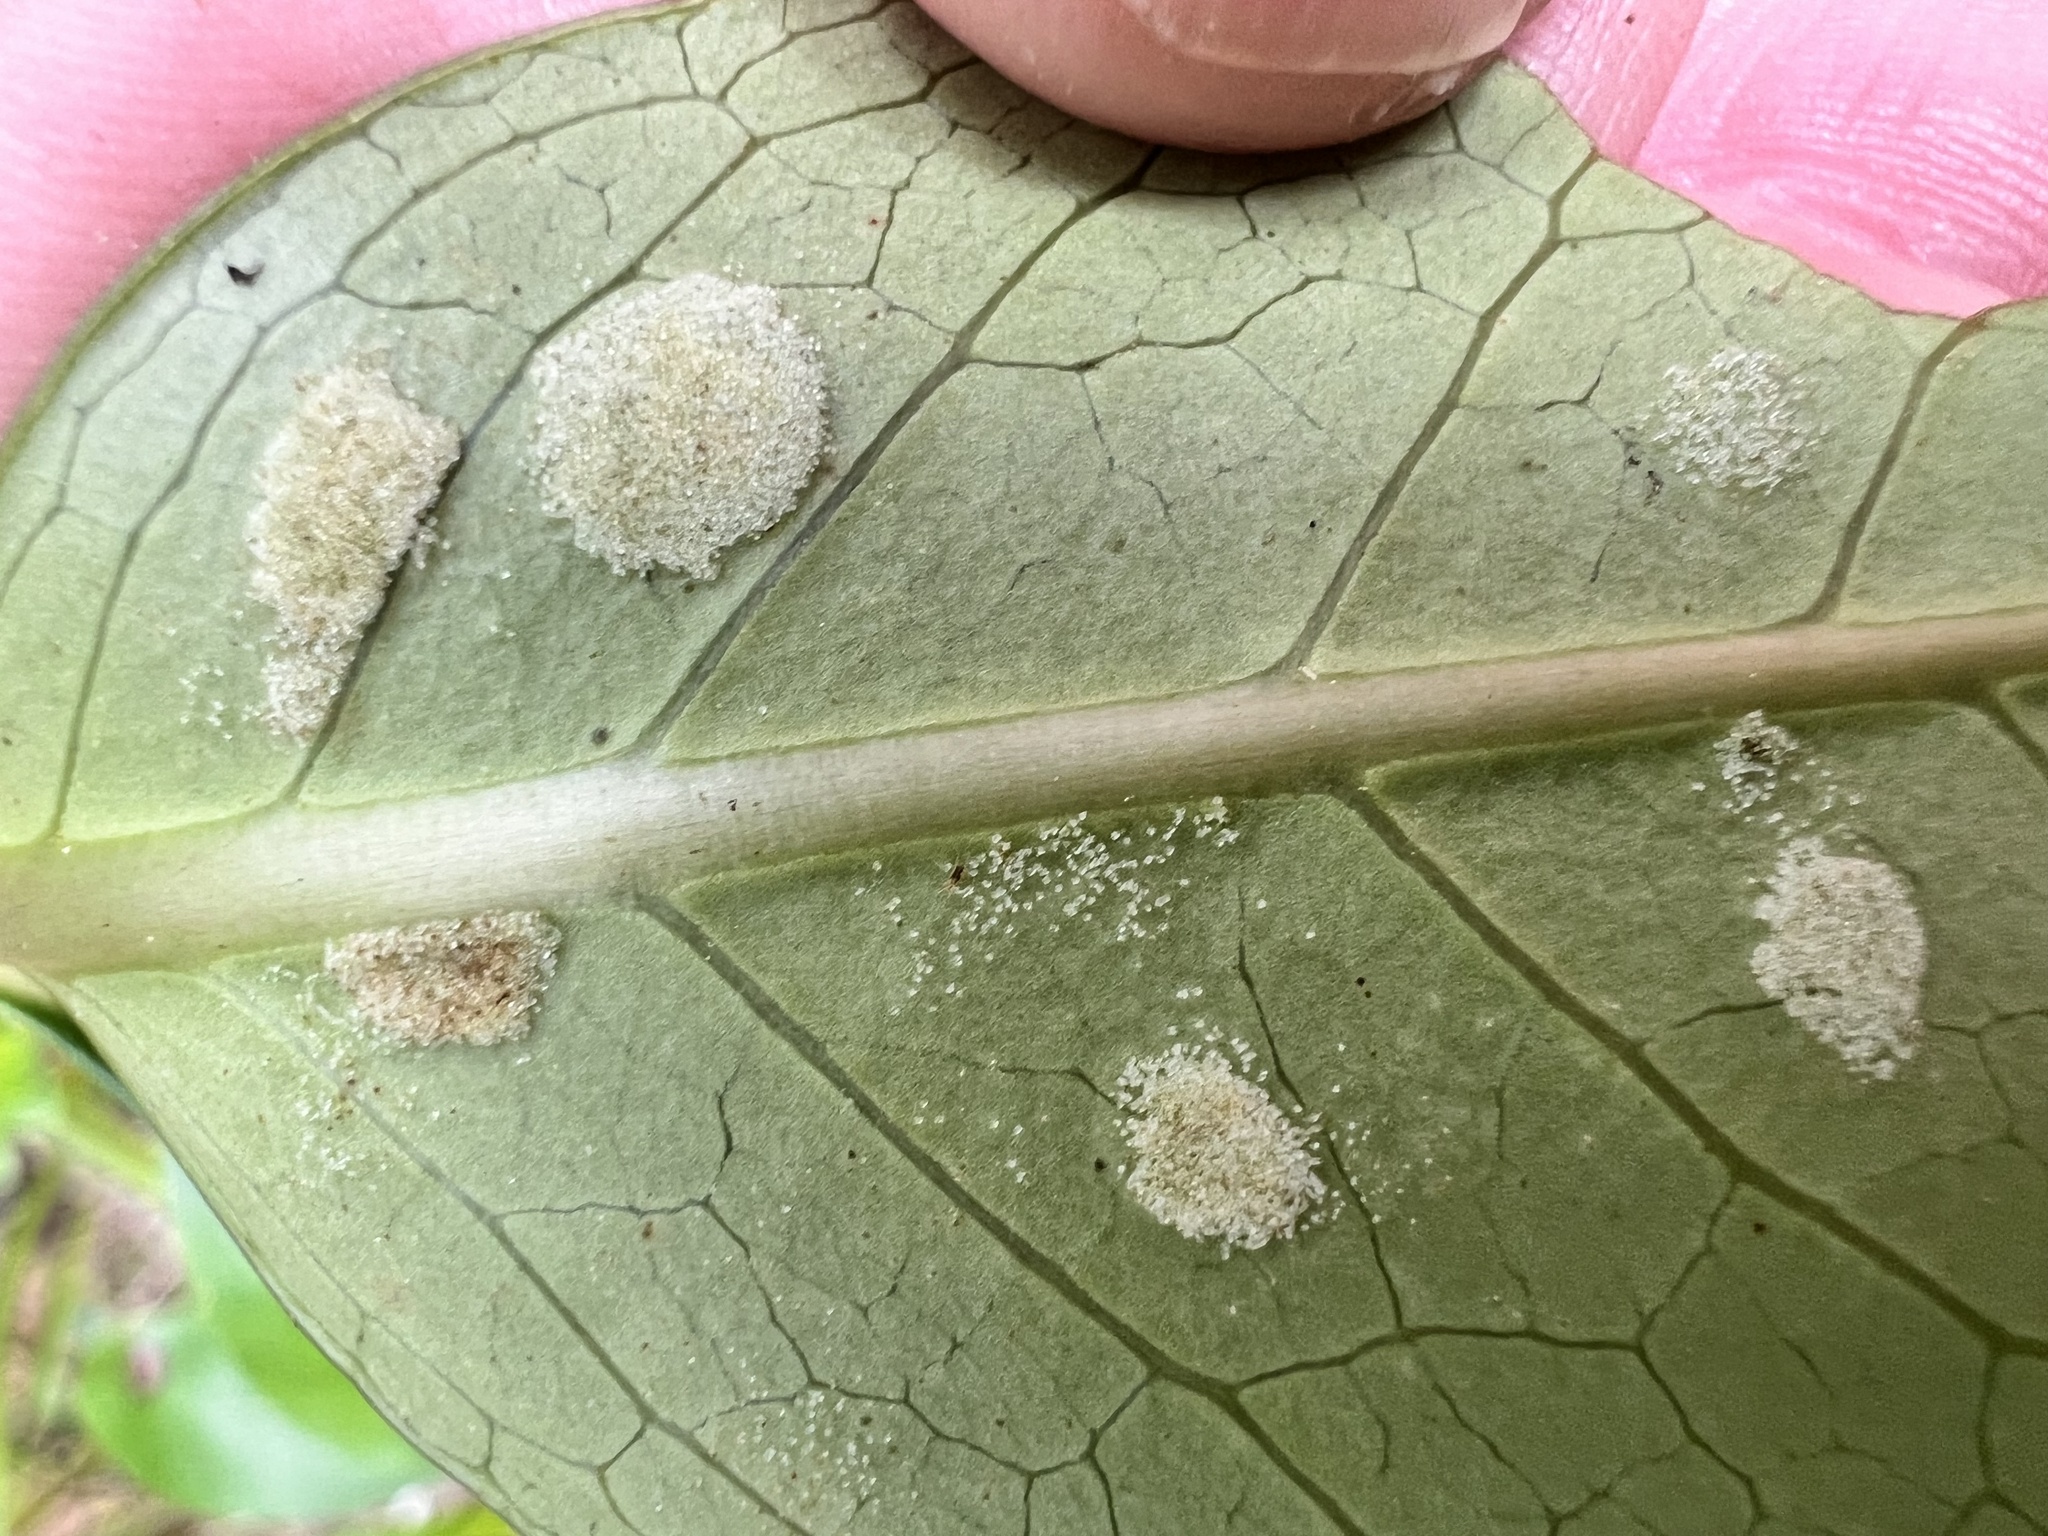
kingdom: Plantae
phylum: Tracheophyta
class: Magnoliopsida
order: Gentianales
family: Rubiaceae
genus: Coprosma
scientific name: Coprosma robusta
